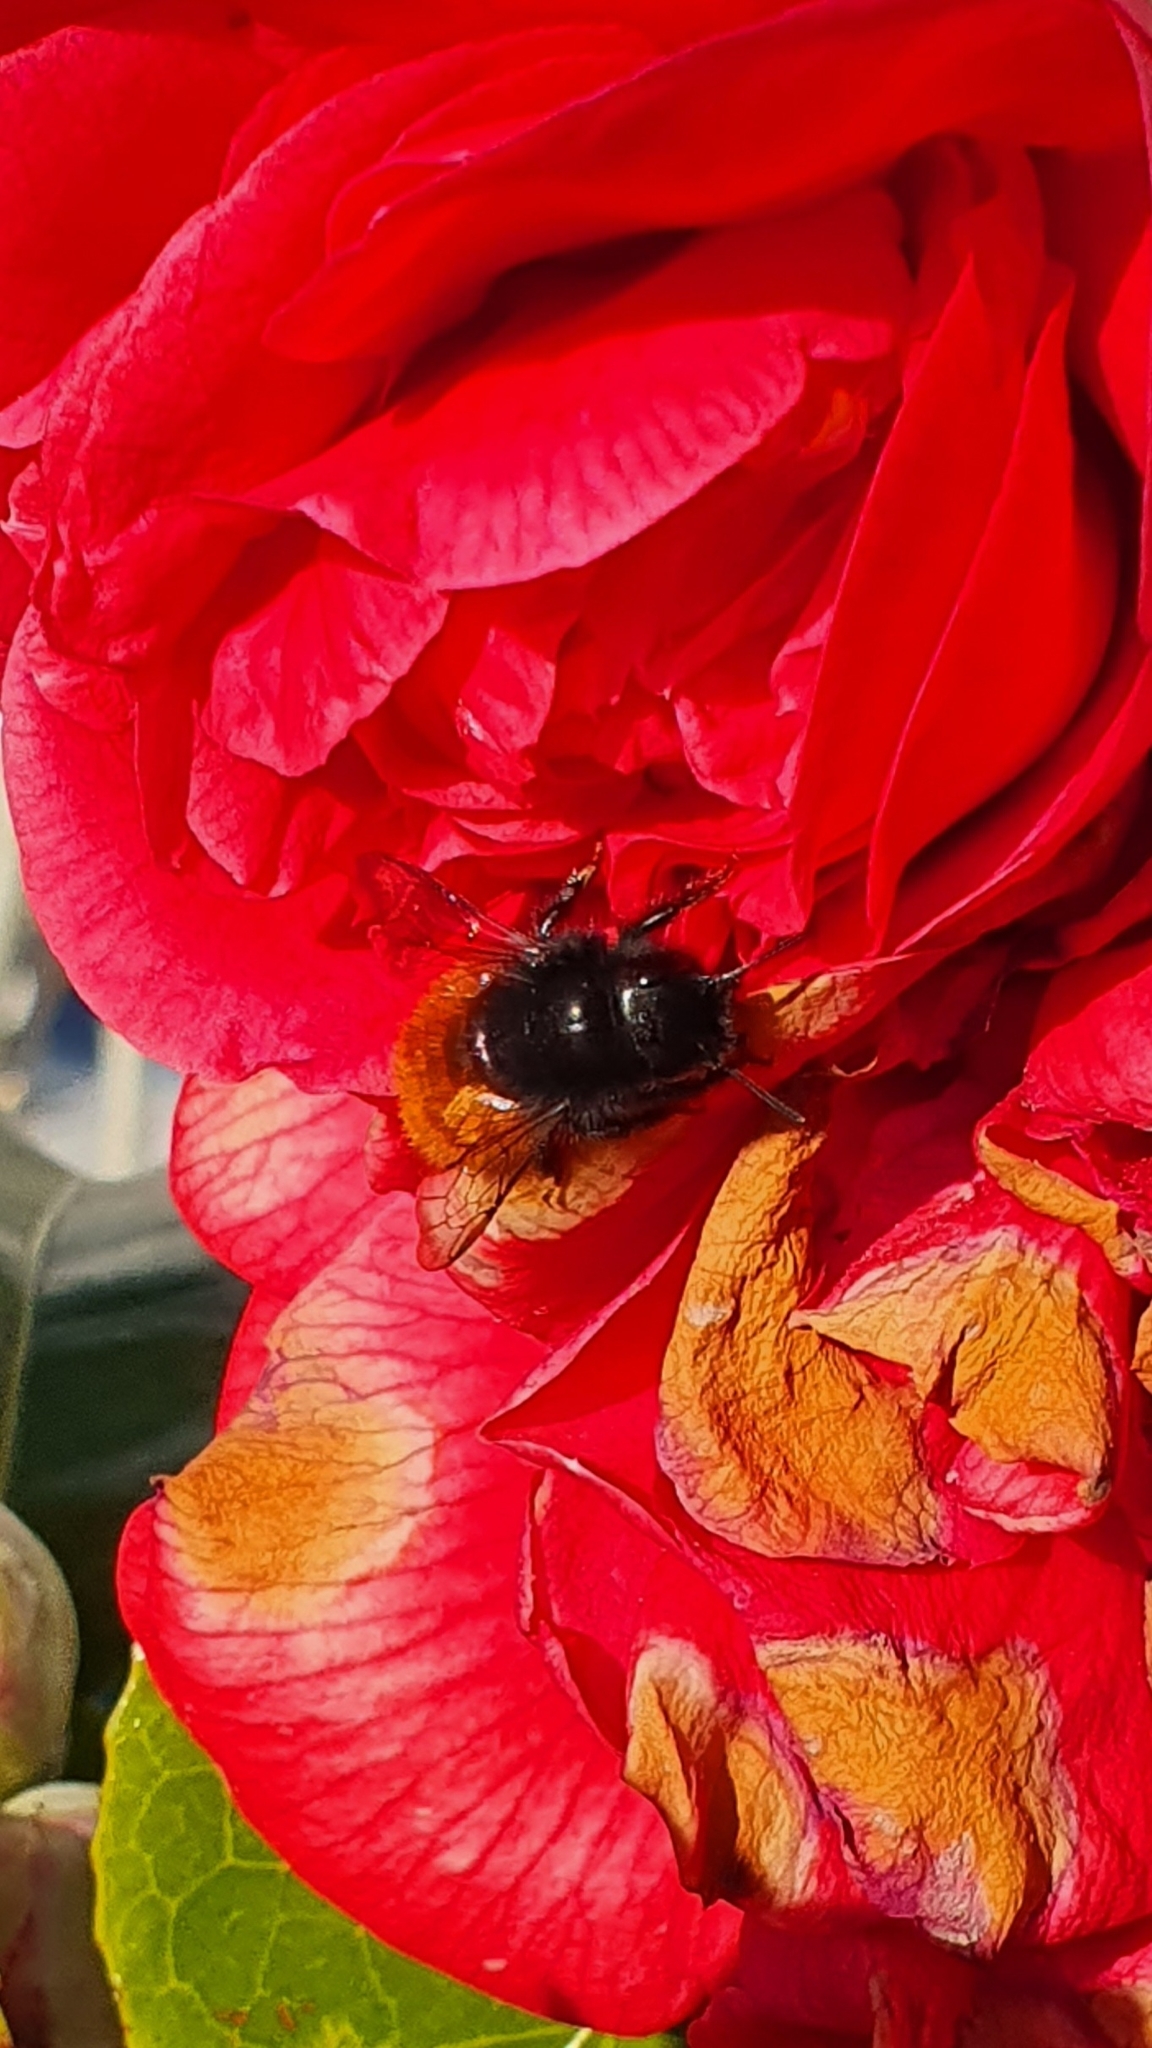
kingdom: Animalia
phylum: Arthropoda
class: Insecta
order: Hymenoptera
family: Megachilidae
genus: Osmia
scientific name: Osmia cornuta
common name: Mason bee
